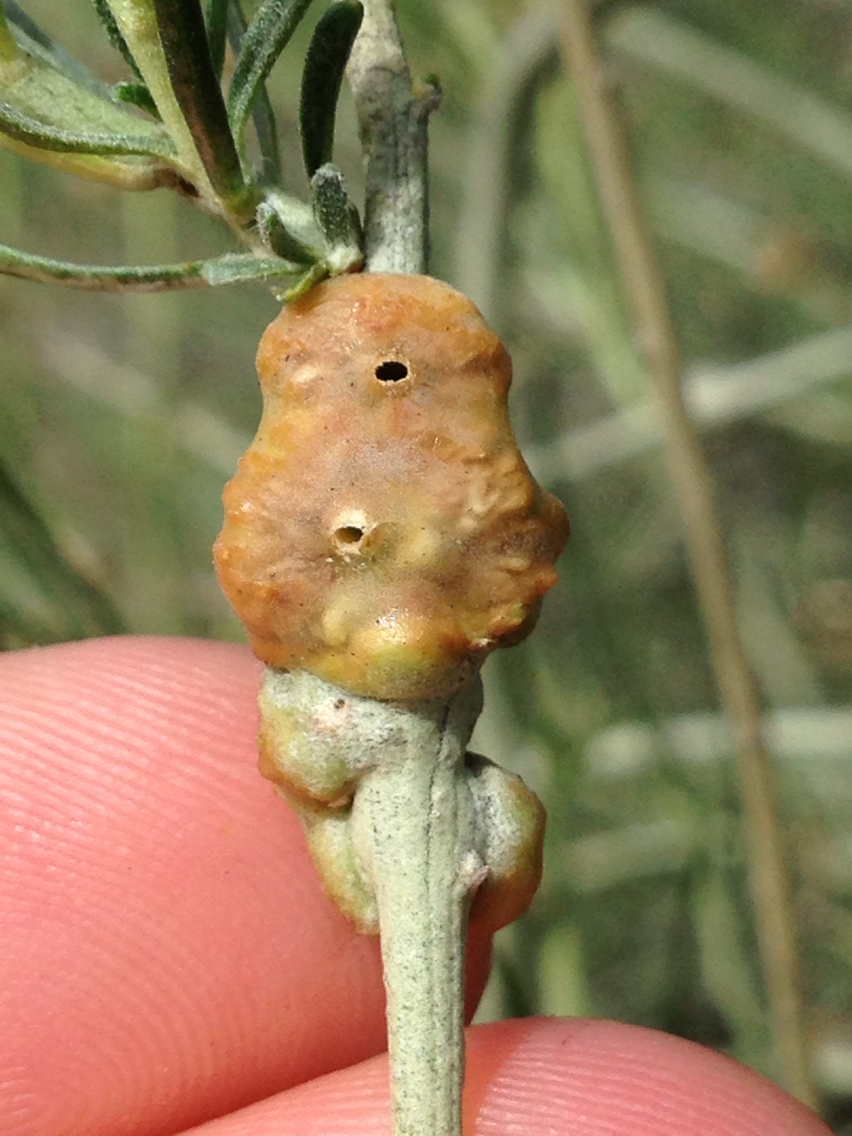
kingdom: Animalia
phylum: Arthropoda
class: Insecta
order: Diptera
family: Cecidomyiidae
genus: Rhopalomyia
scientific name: Rhopalomyia glutinosa
